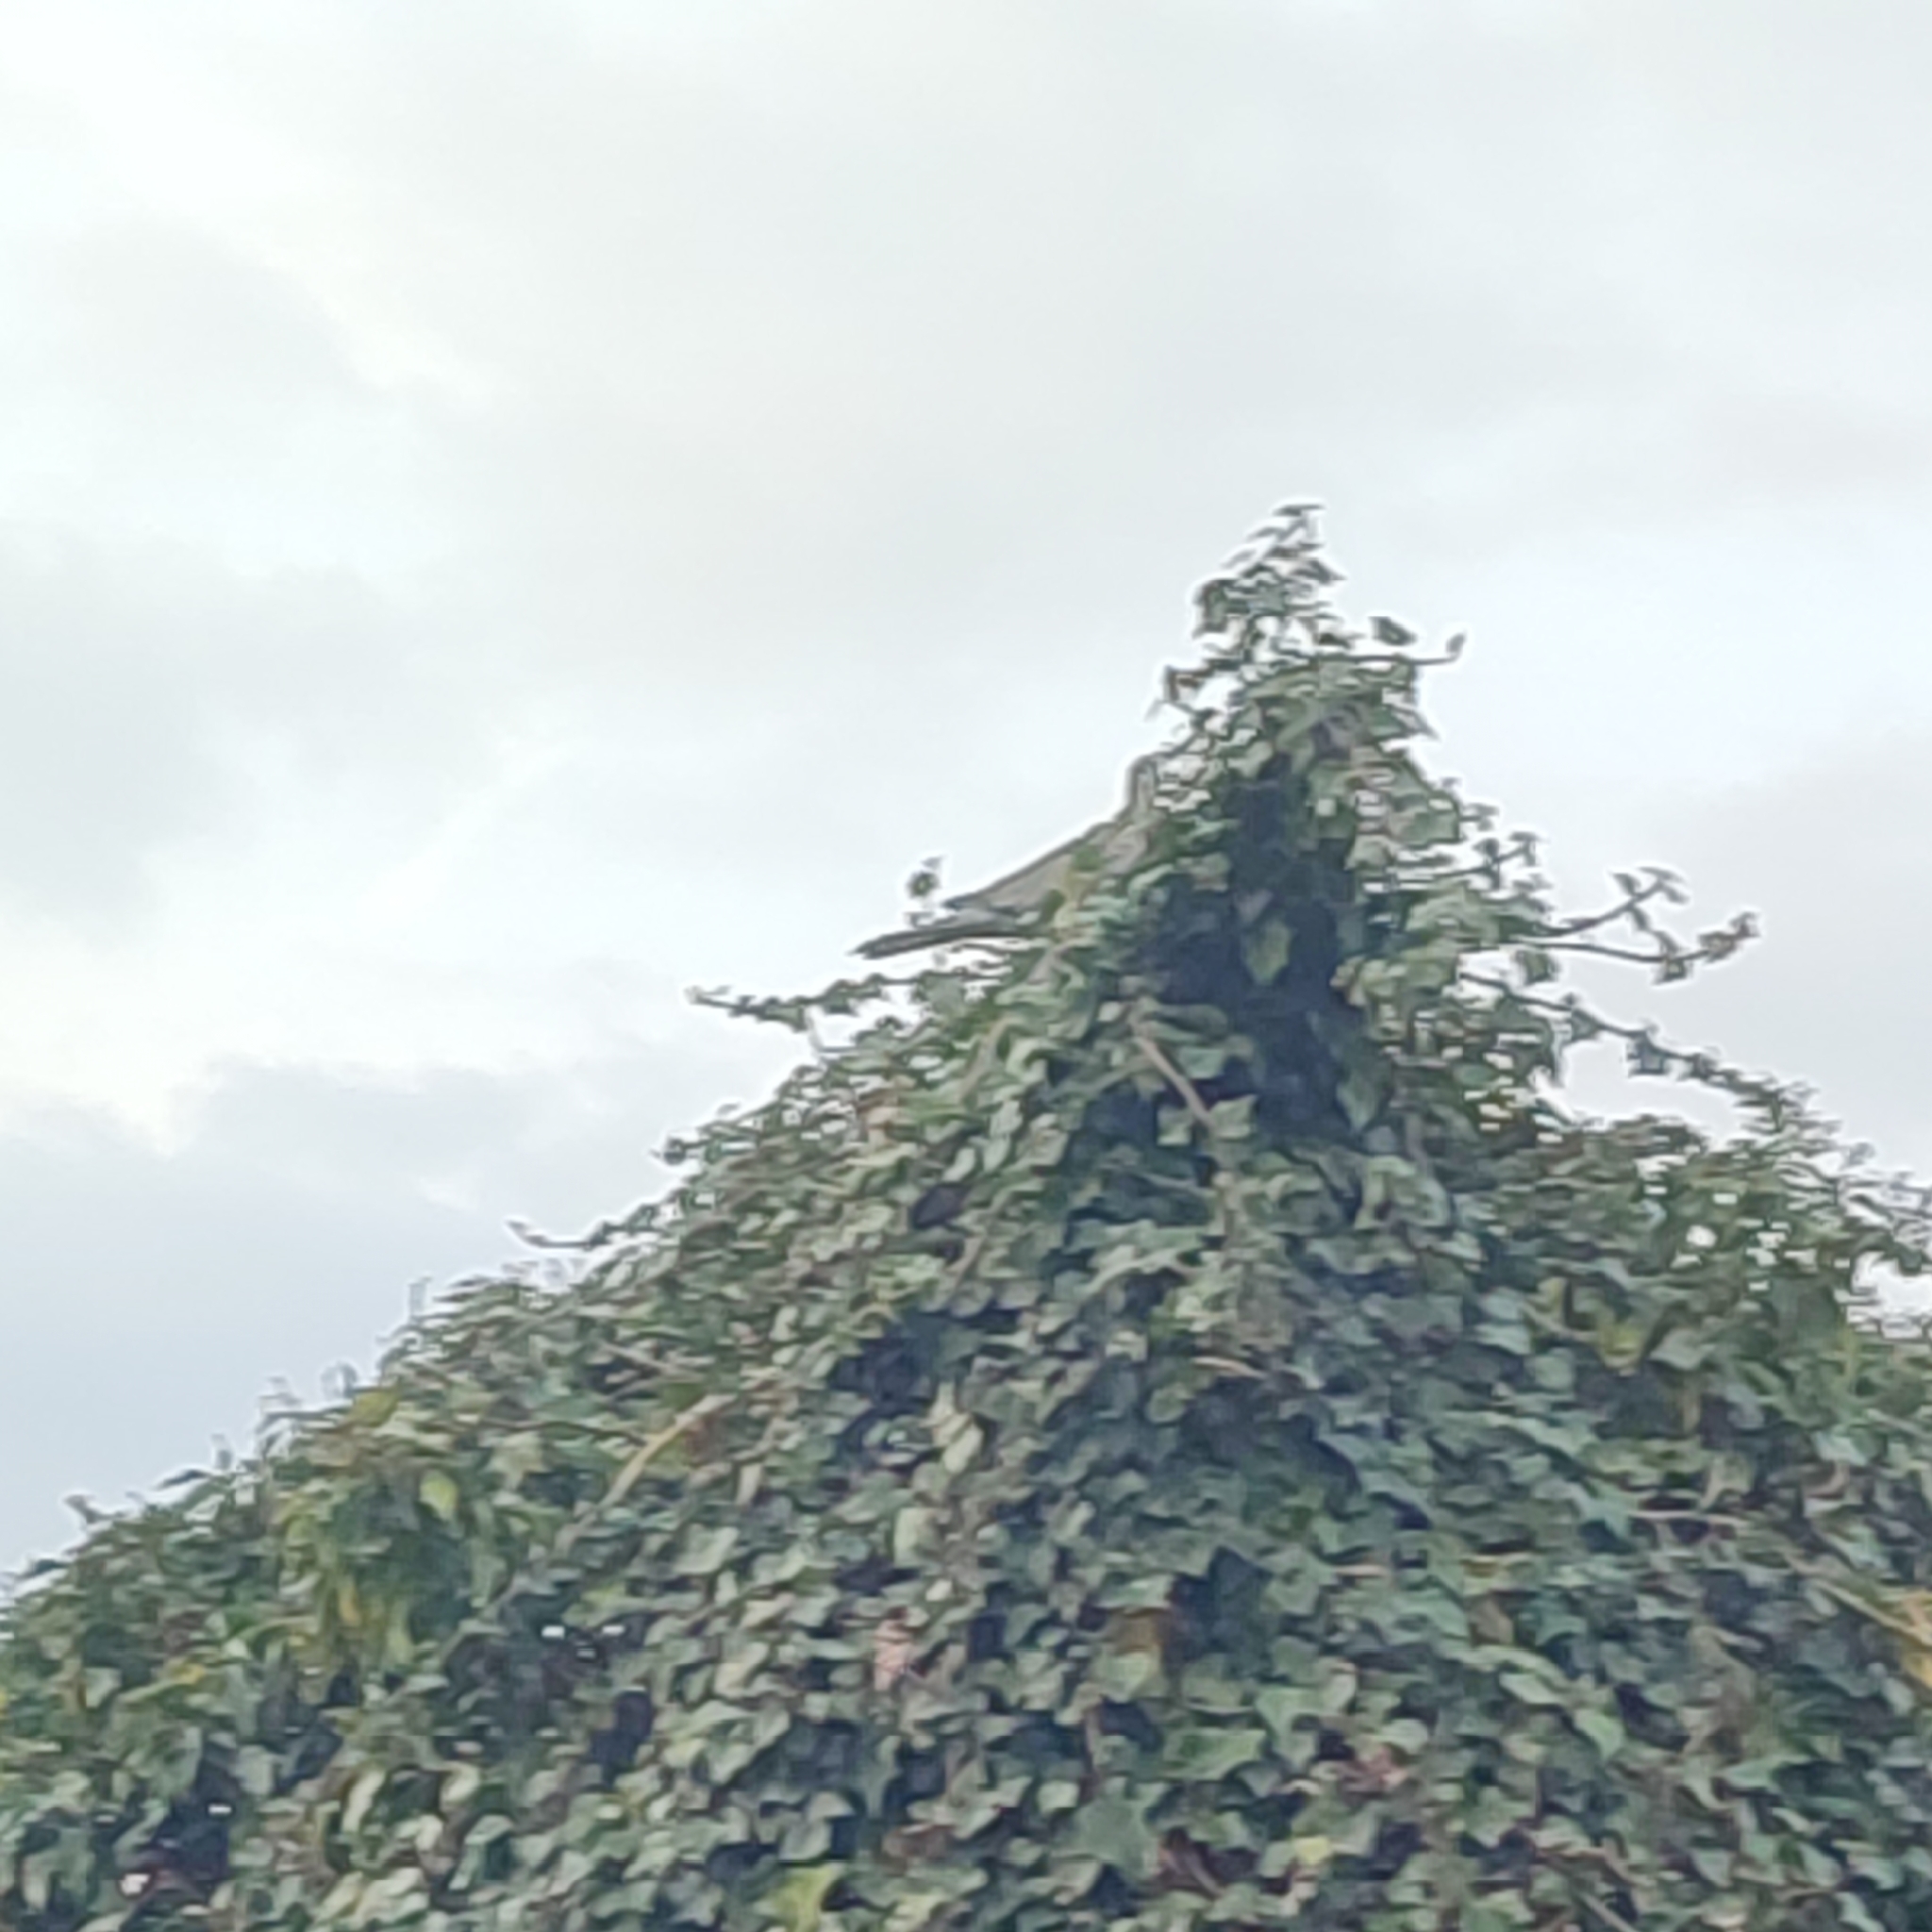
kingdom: Animalia
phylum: Chordata
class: Aves
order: Columbiformes
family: Columbidae
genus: Streptopelia
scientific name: Streptopelia decaocto
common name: Eurasian collared dove
